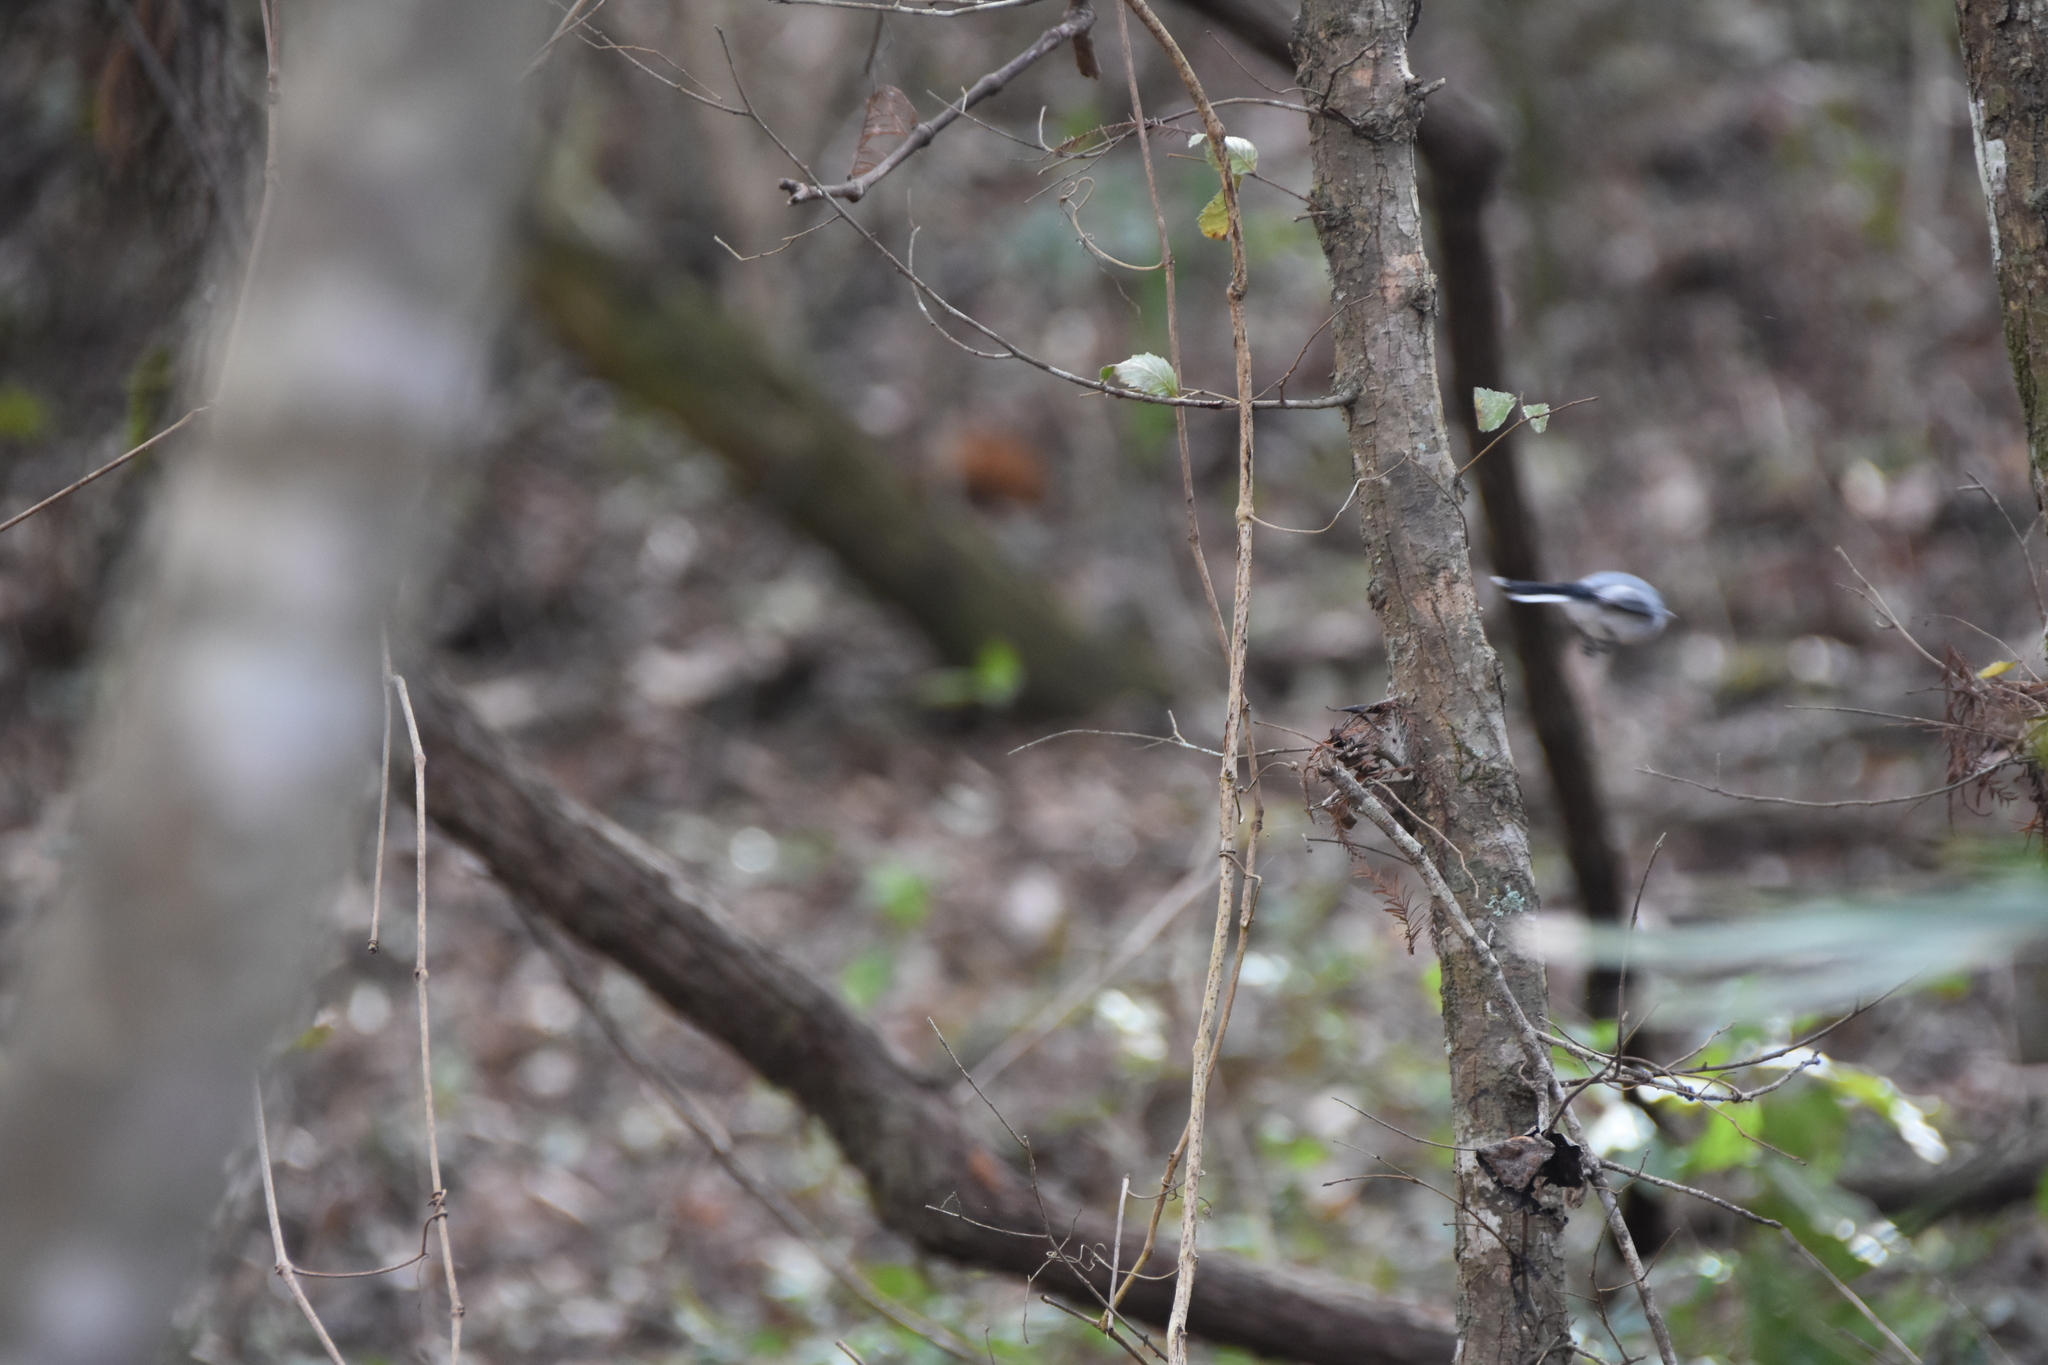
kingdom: Animalia
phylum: Chordata
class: Aves
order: Passeriformes
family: Polioptilidae
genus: Polioptila
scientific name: Polioptila caerulea
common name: Blue-gray gnatcatcher
